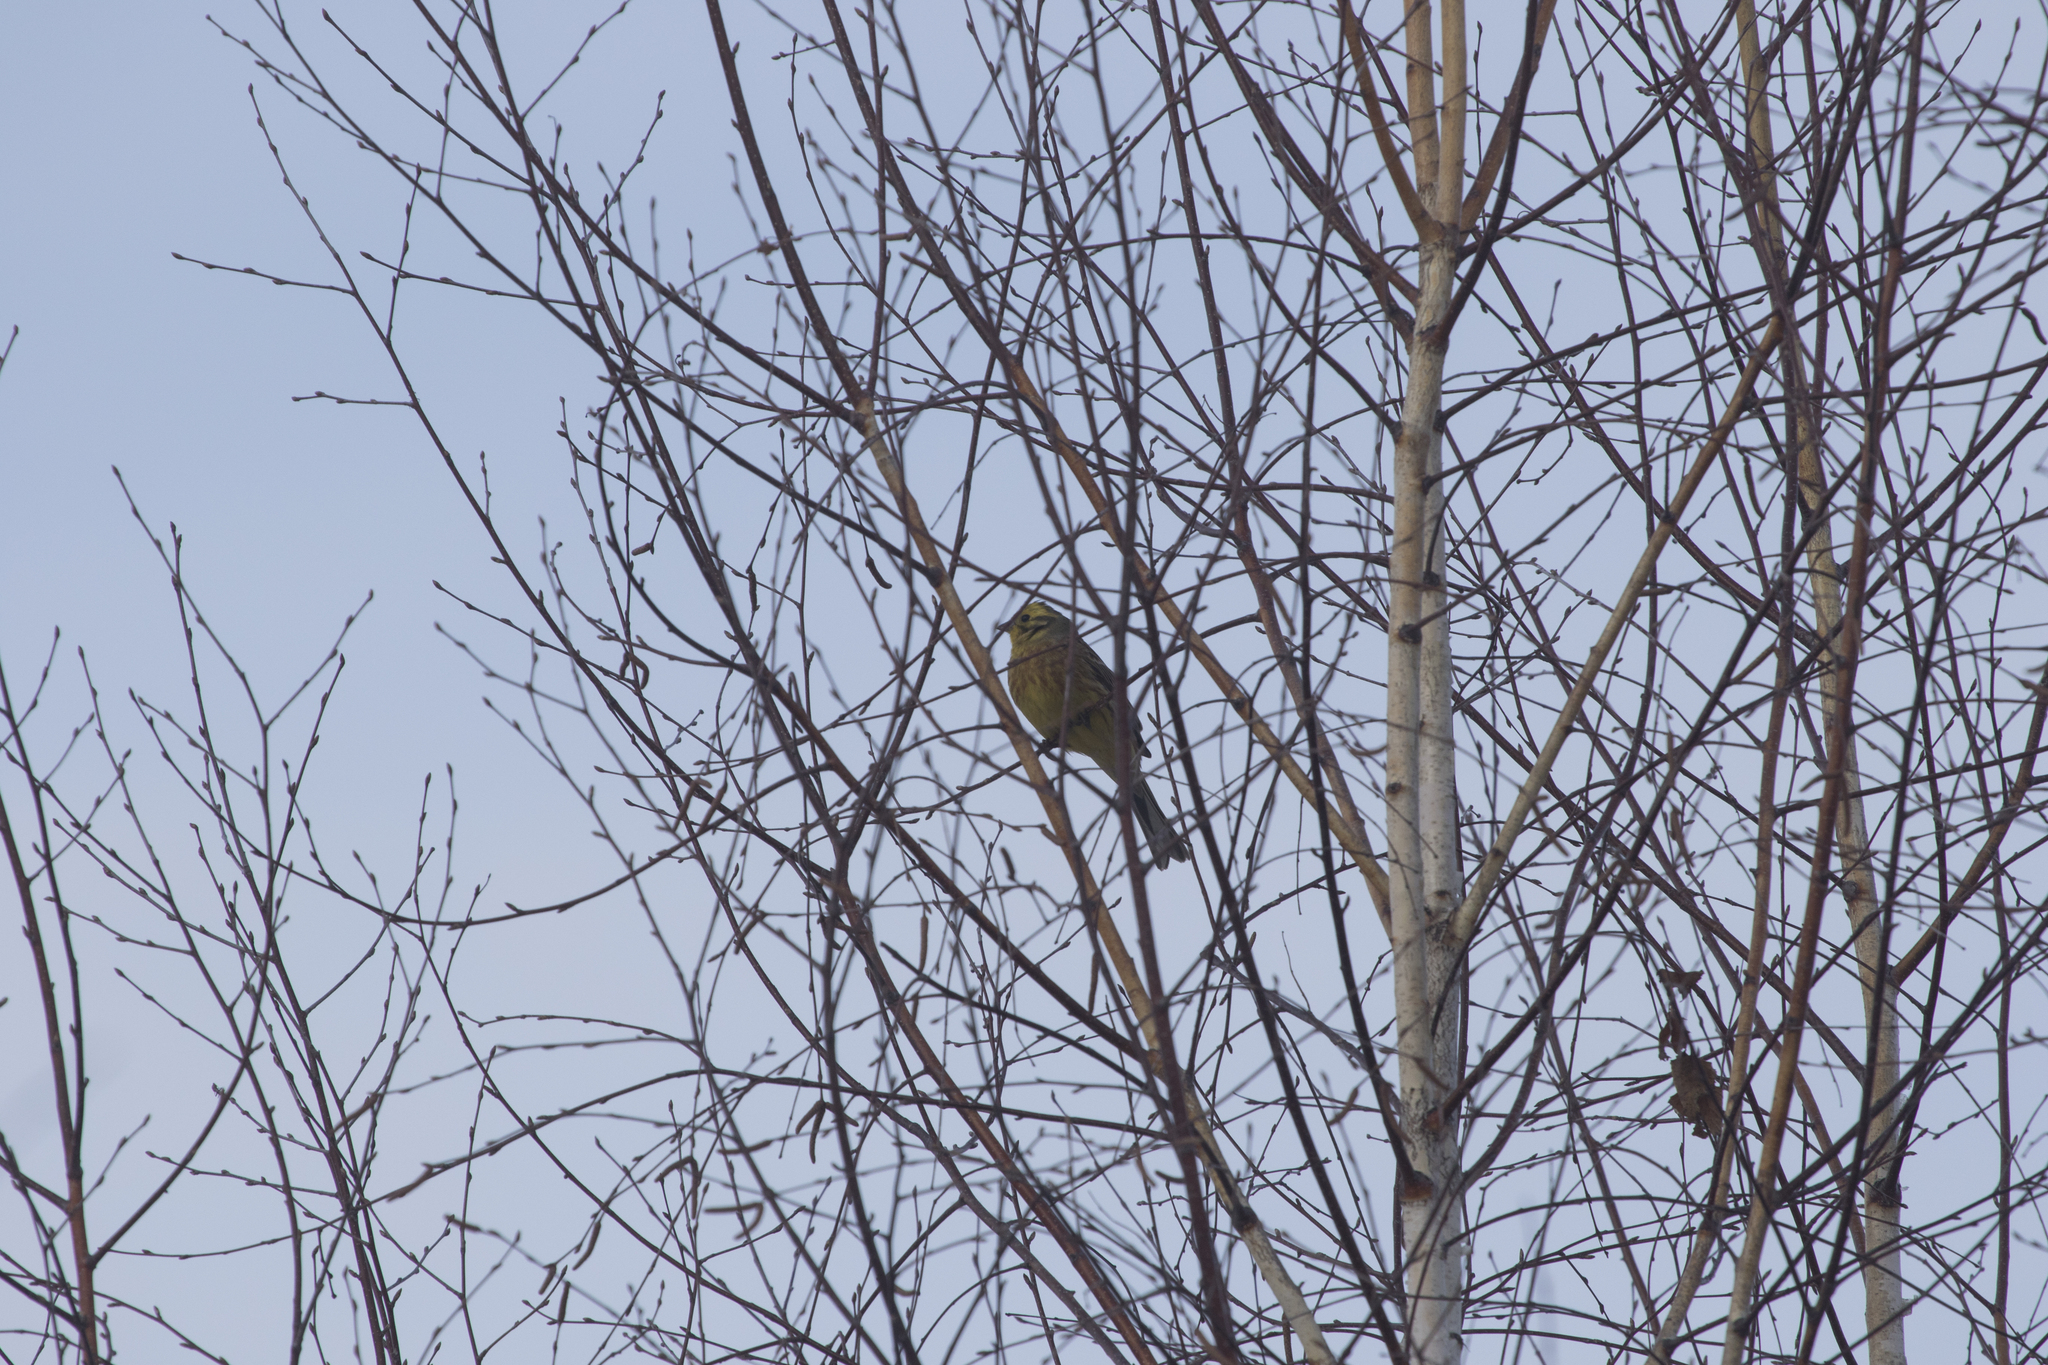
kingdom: Animalia
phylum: Chordata
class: Aves
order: Passeriformes
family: Emberizidae
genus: Emberiza
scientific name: Emberiza citrinella
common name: Yellowhammer
